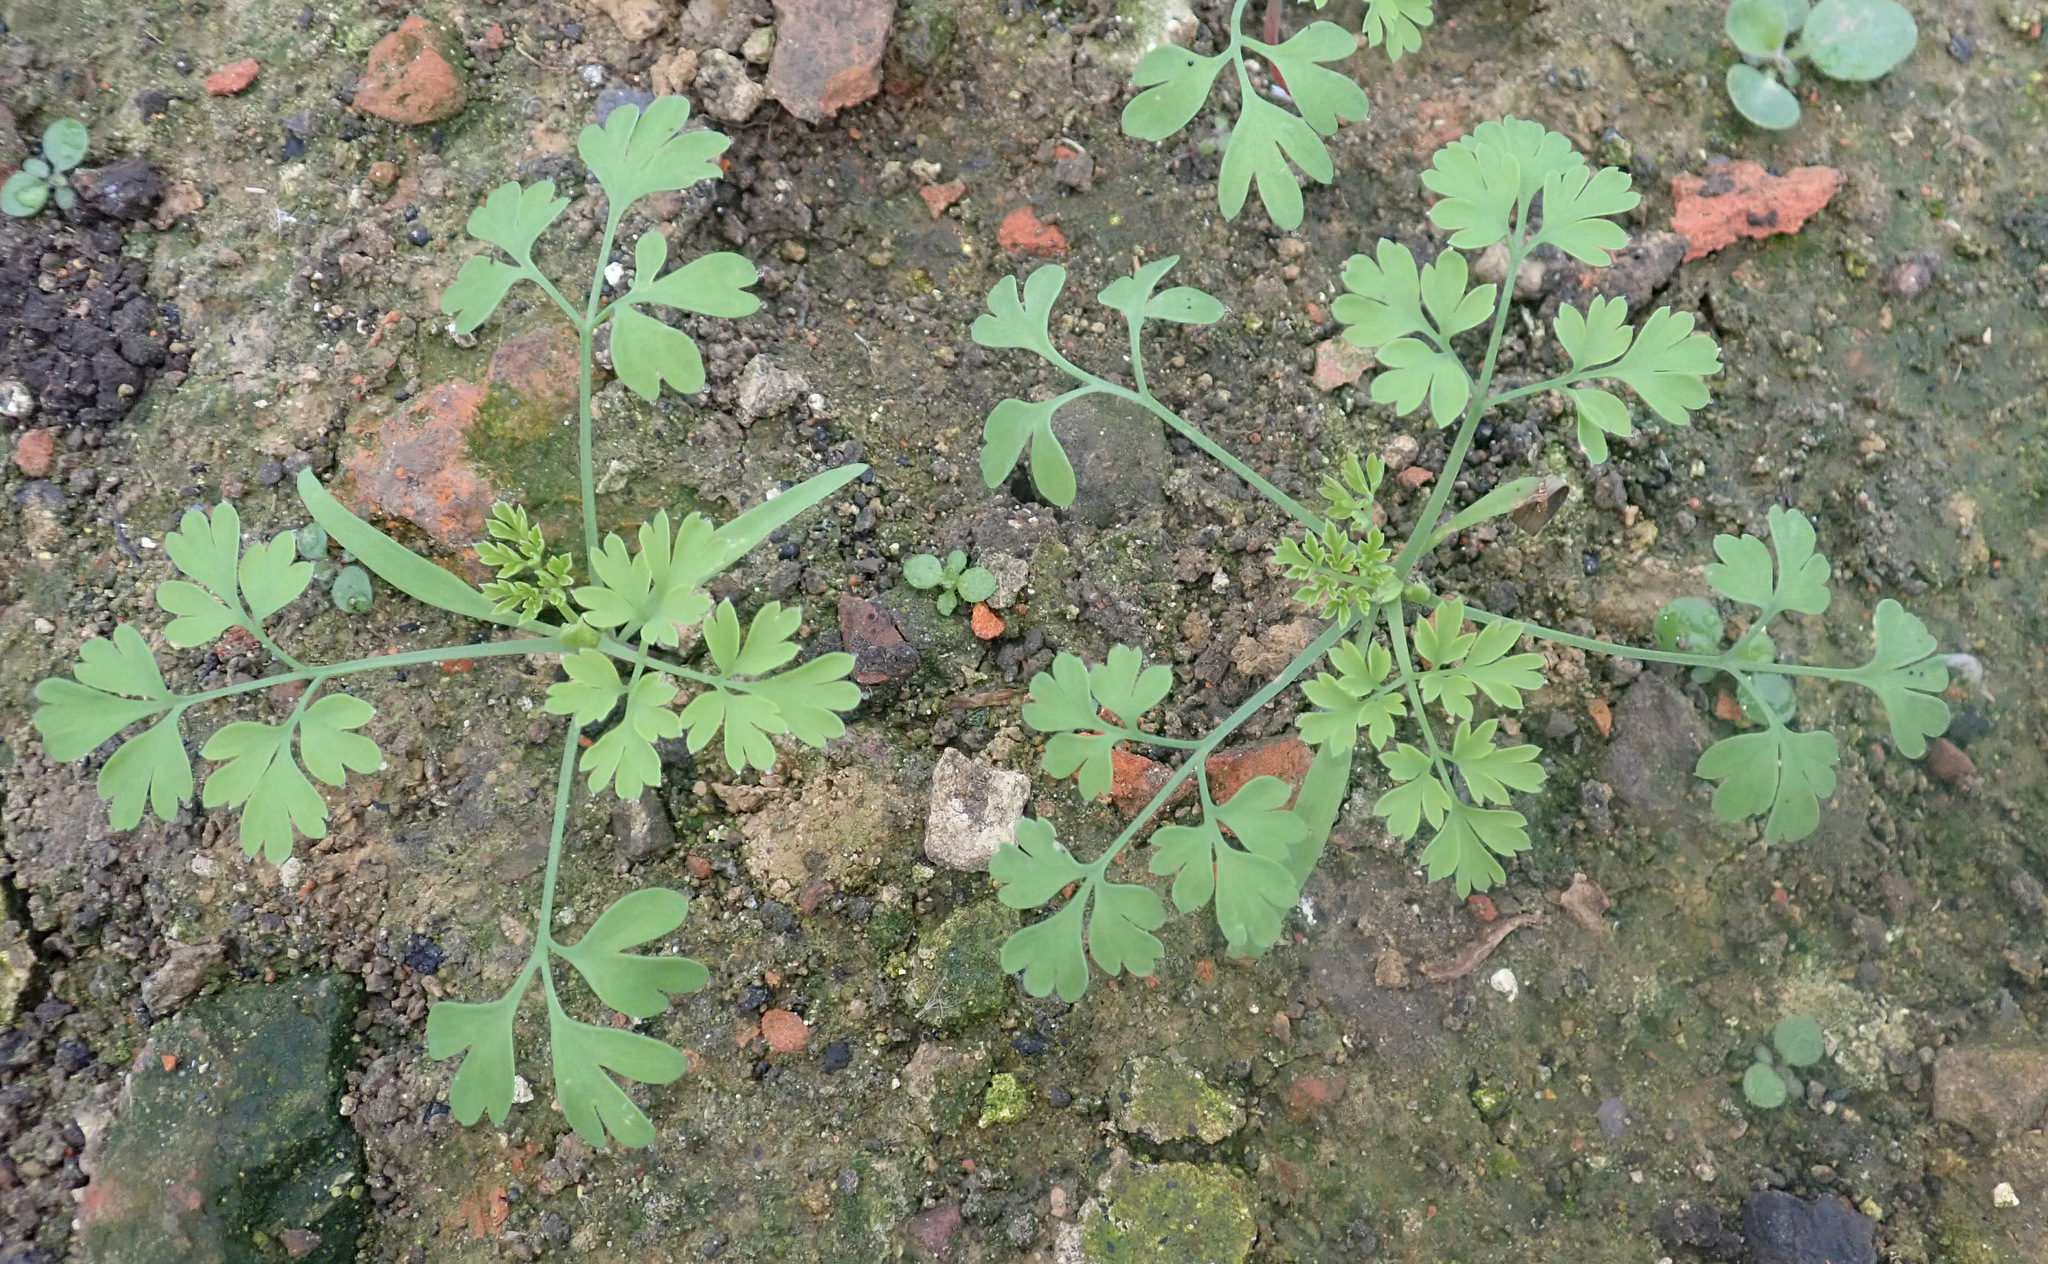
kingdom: Plantae
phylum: Tracheophyta
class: Magnoliopsida
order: Ranunculales
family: Papaveraceae
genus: Fumaria
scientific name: Fumaria capreolata
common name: White ramping-fumitory
